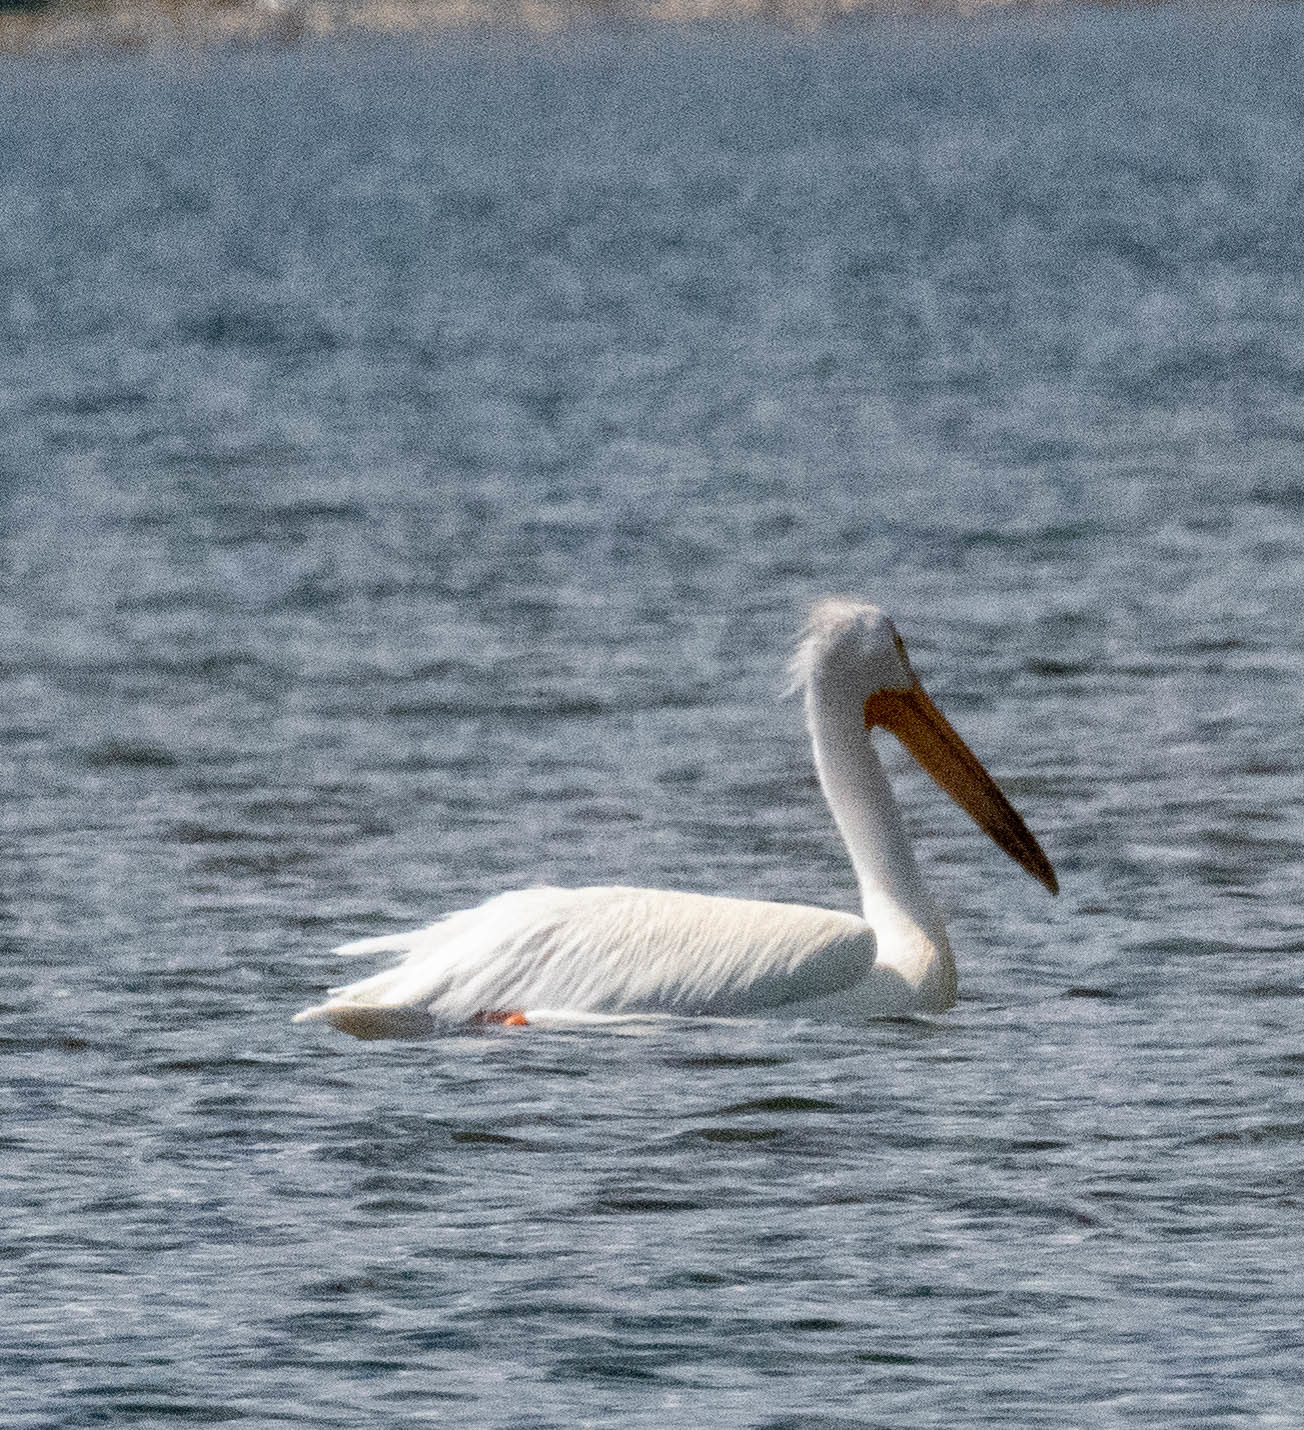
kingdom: Animalia
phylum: Chordata
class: Aves
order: Pelecaniformes
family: Pelecanidae
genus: Pelecanus
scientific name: Pelecanus erythrorhynchos
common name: American white pelican
